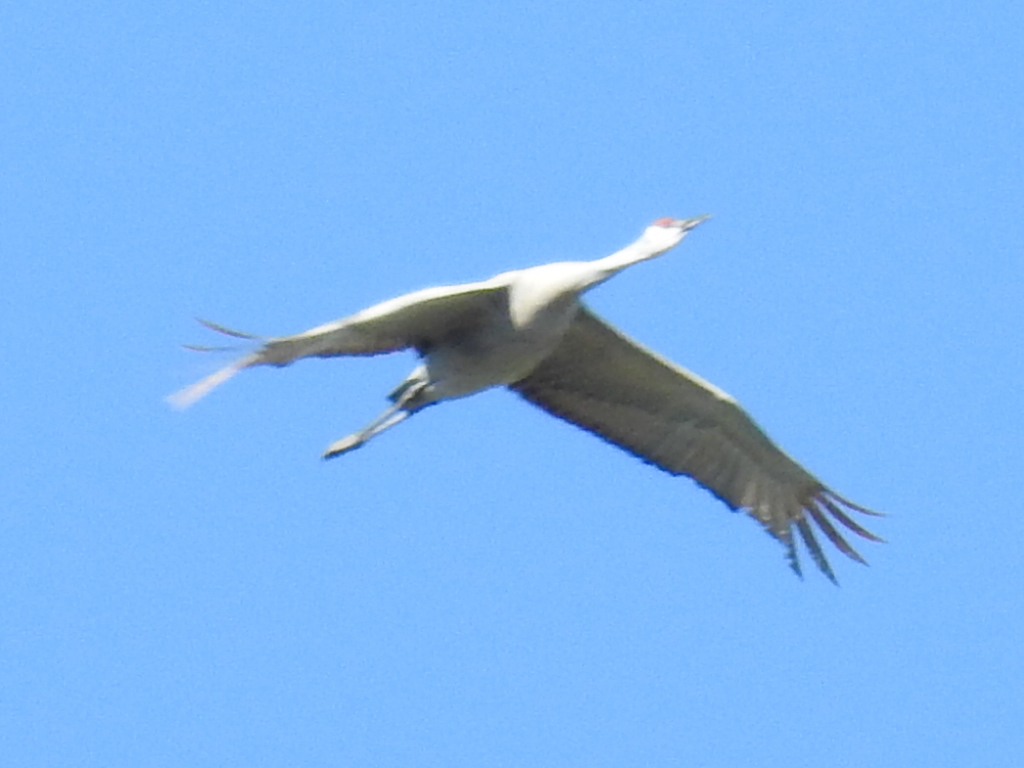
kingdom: Animalia
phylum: Chordata
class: Aves
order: Gruiformes
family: Gruidae
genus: Grus
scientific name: Grus canadensis
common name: Sandhill crane
